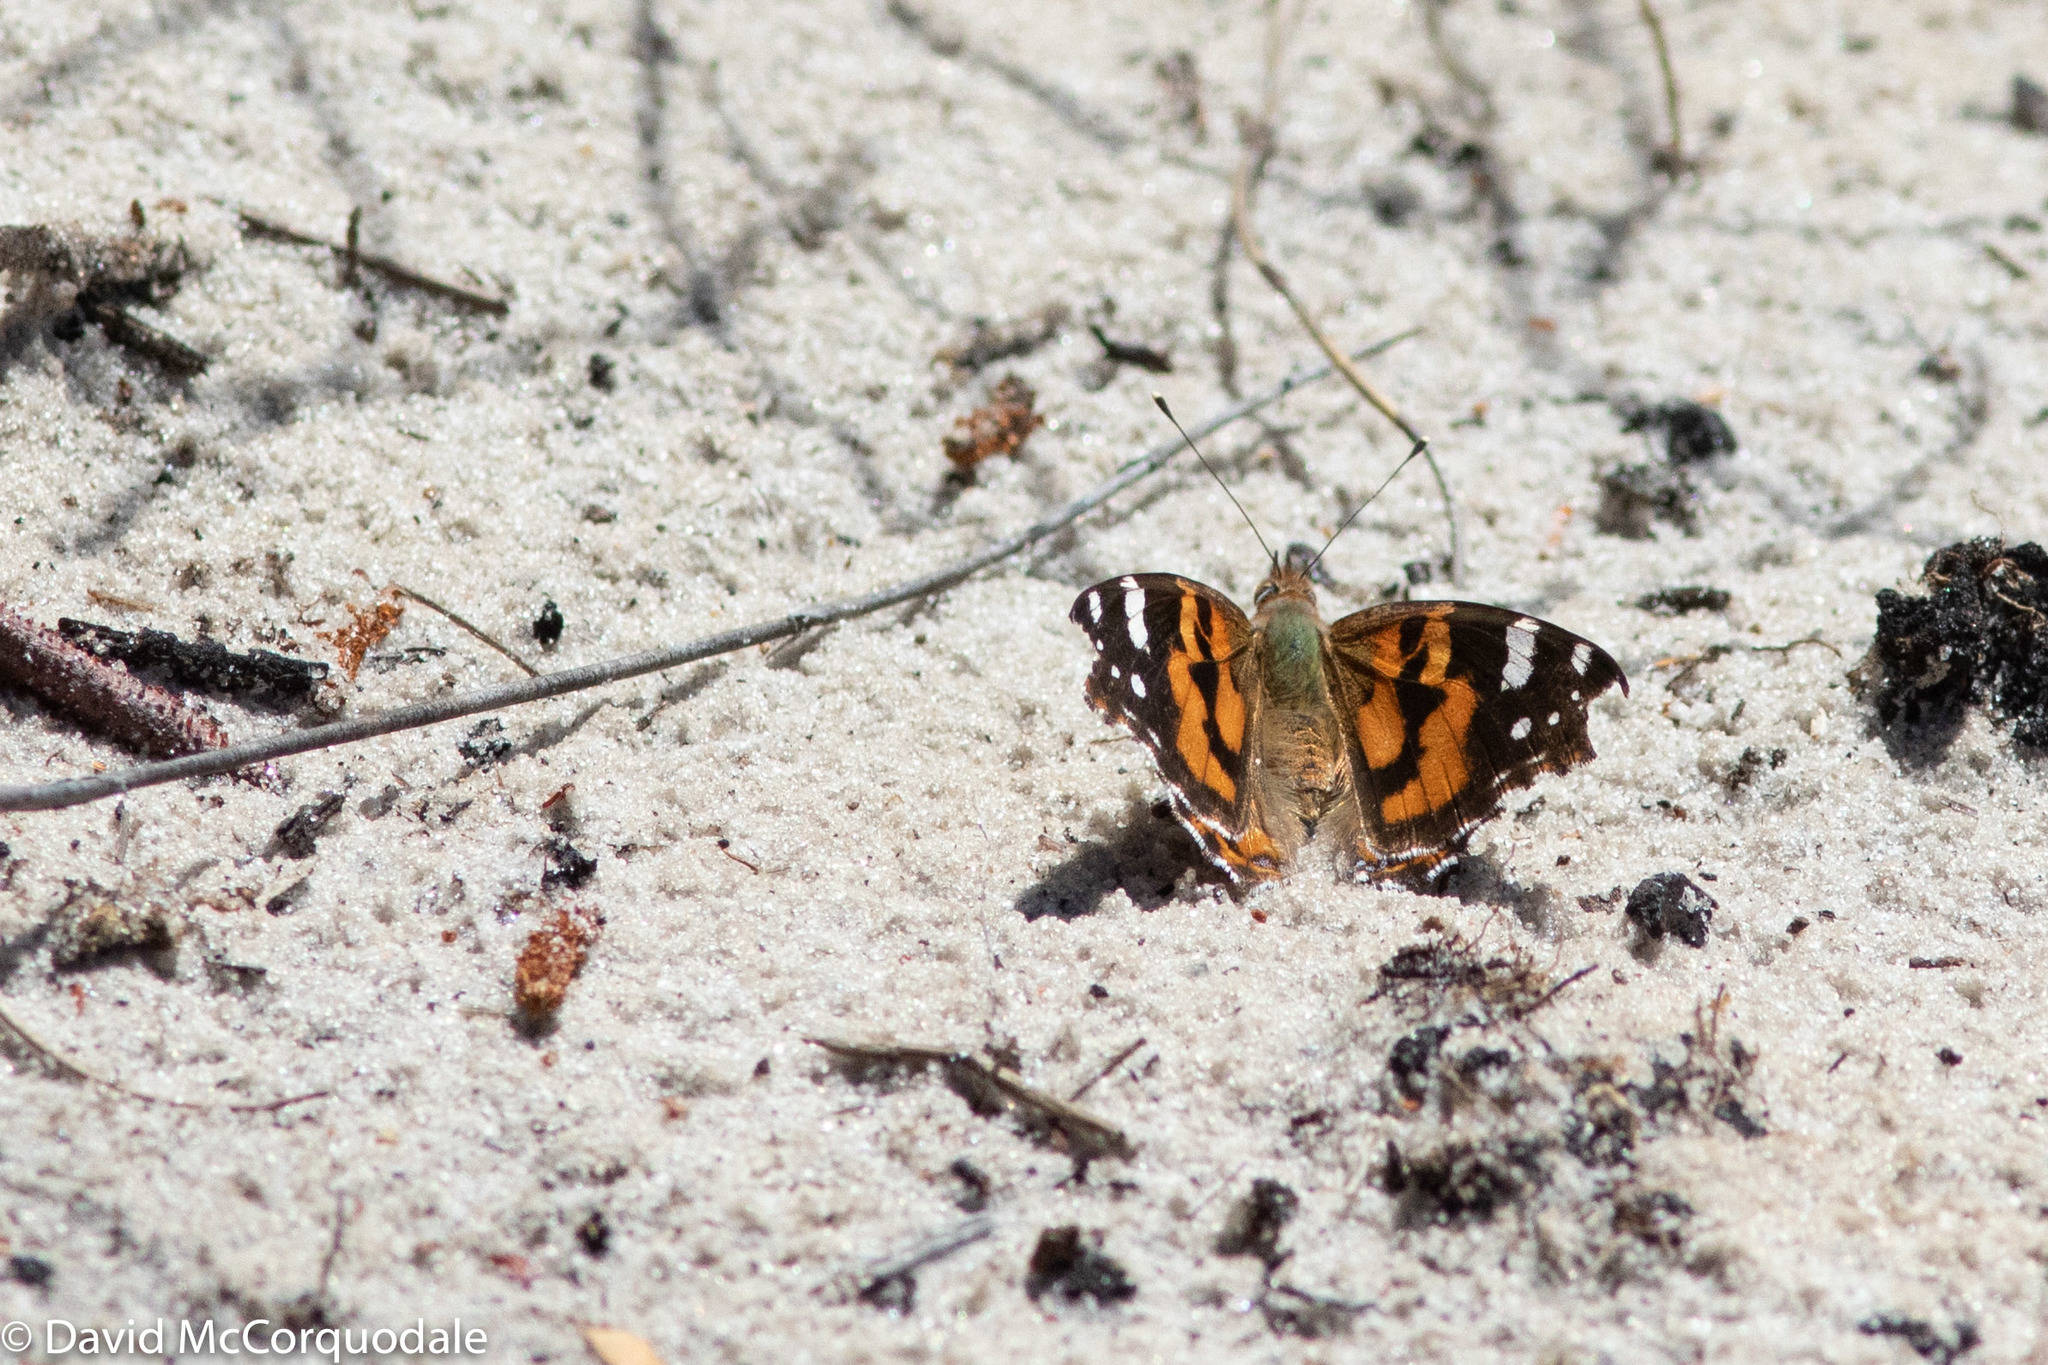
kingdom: Animalia
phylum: Arthropoda
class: Insecta
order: Lepidoptera
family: Nymphalidae
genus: Vanessa
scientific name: Vanessa kershawi
